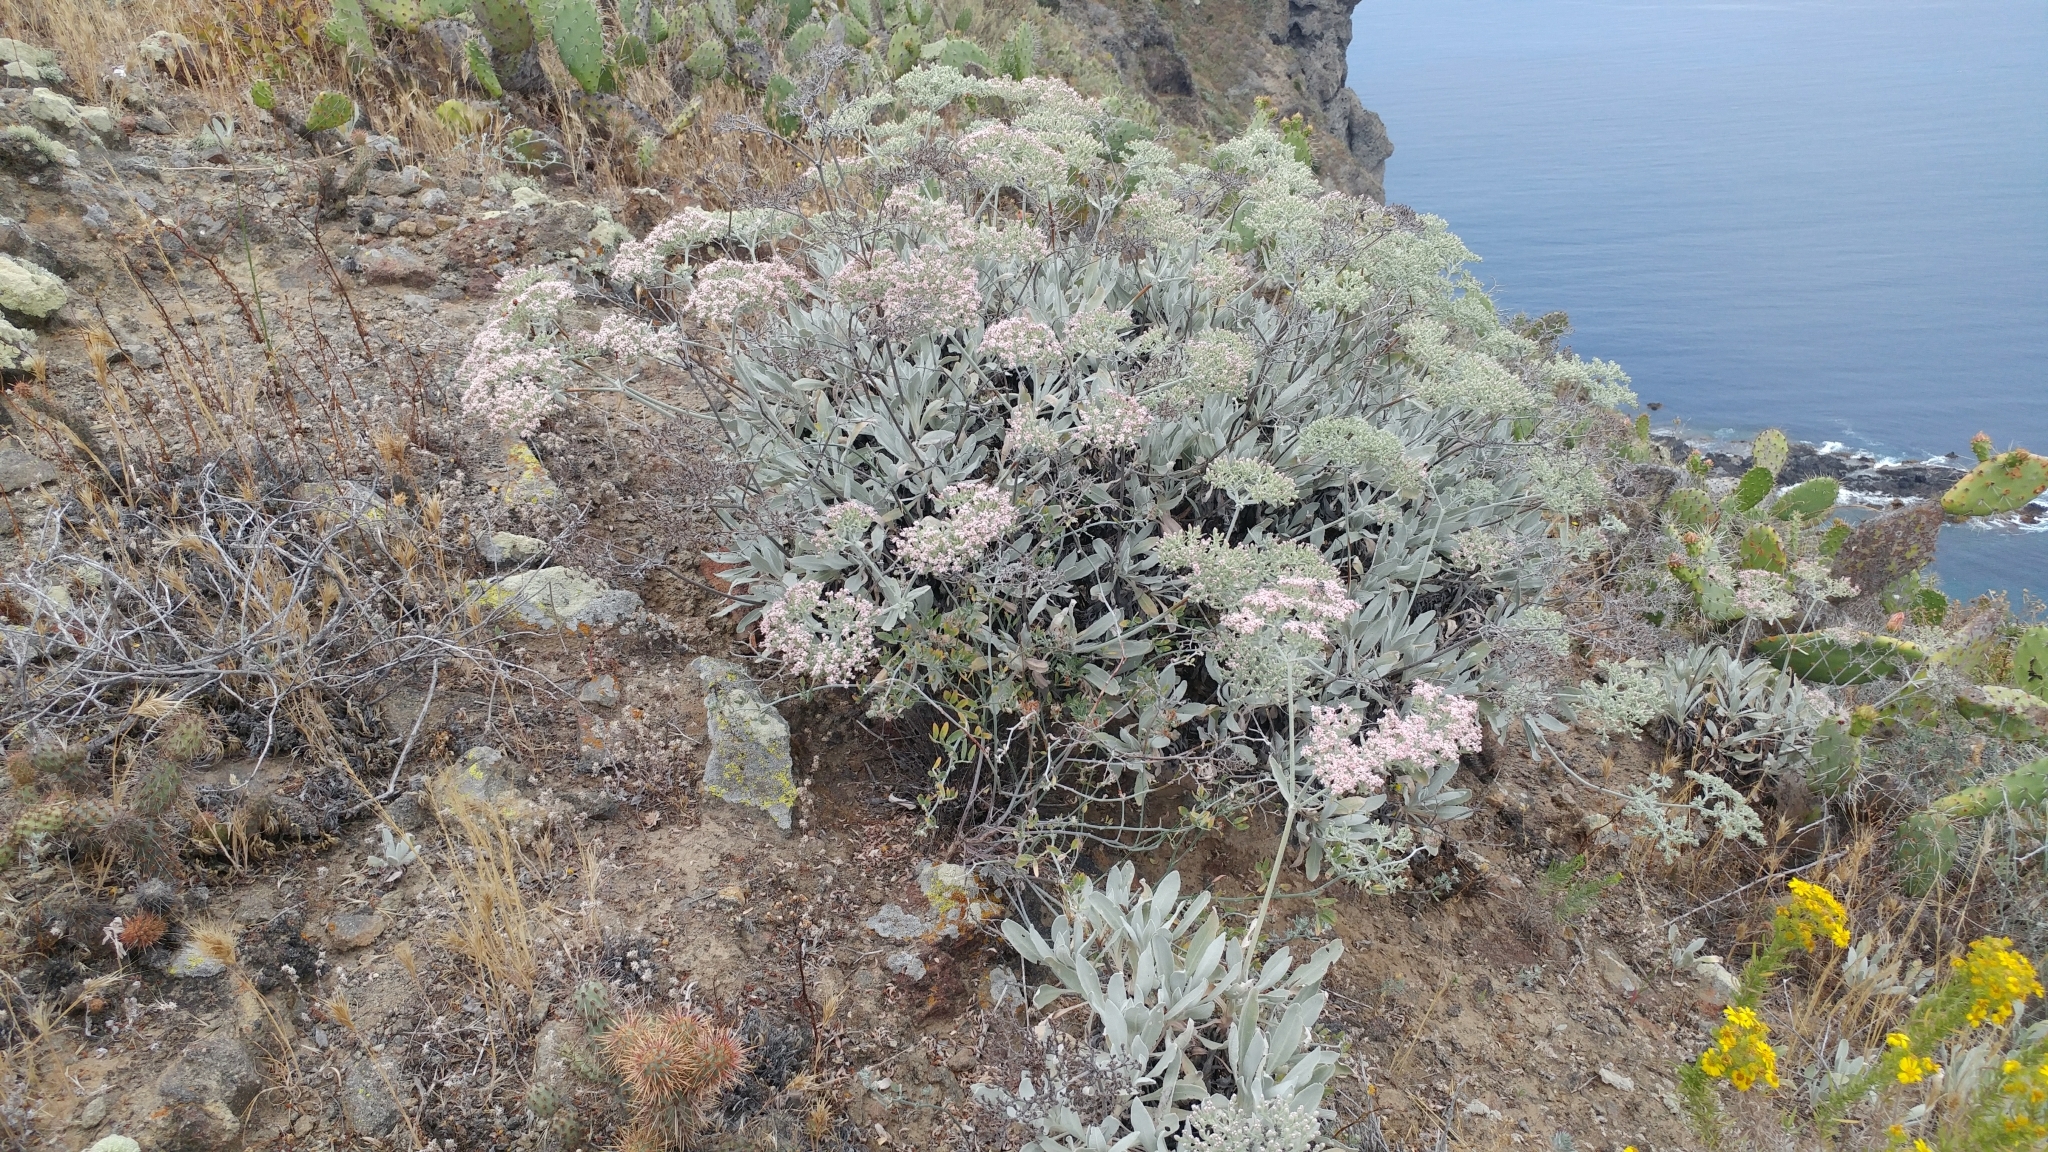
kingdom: Plantae
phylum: Tracheophyta
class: Magnoliopsida
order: Caryophyllales
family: Polygonaceae
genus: Eriogonum
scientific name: Eriogonum giganteum
